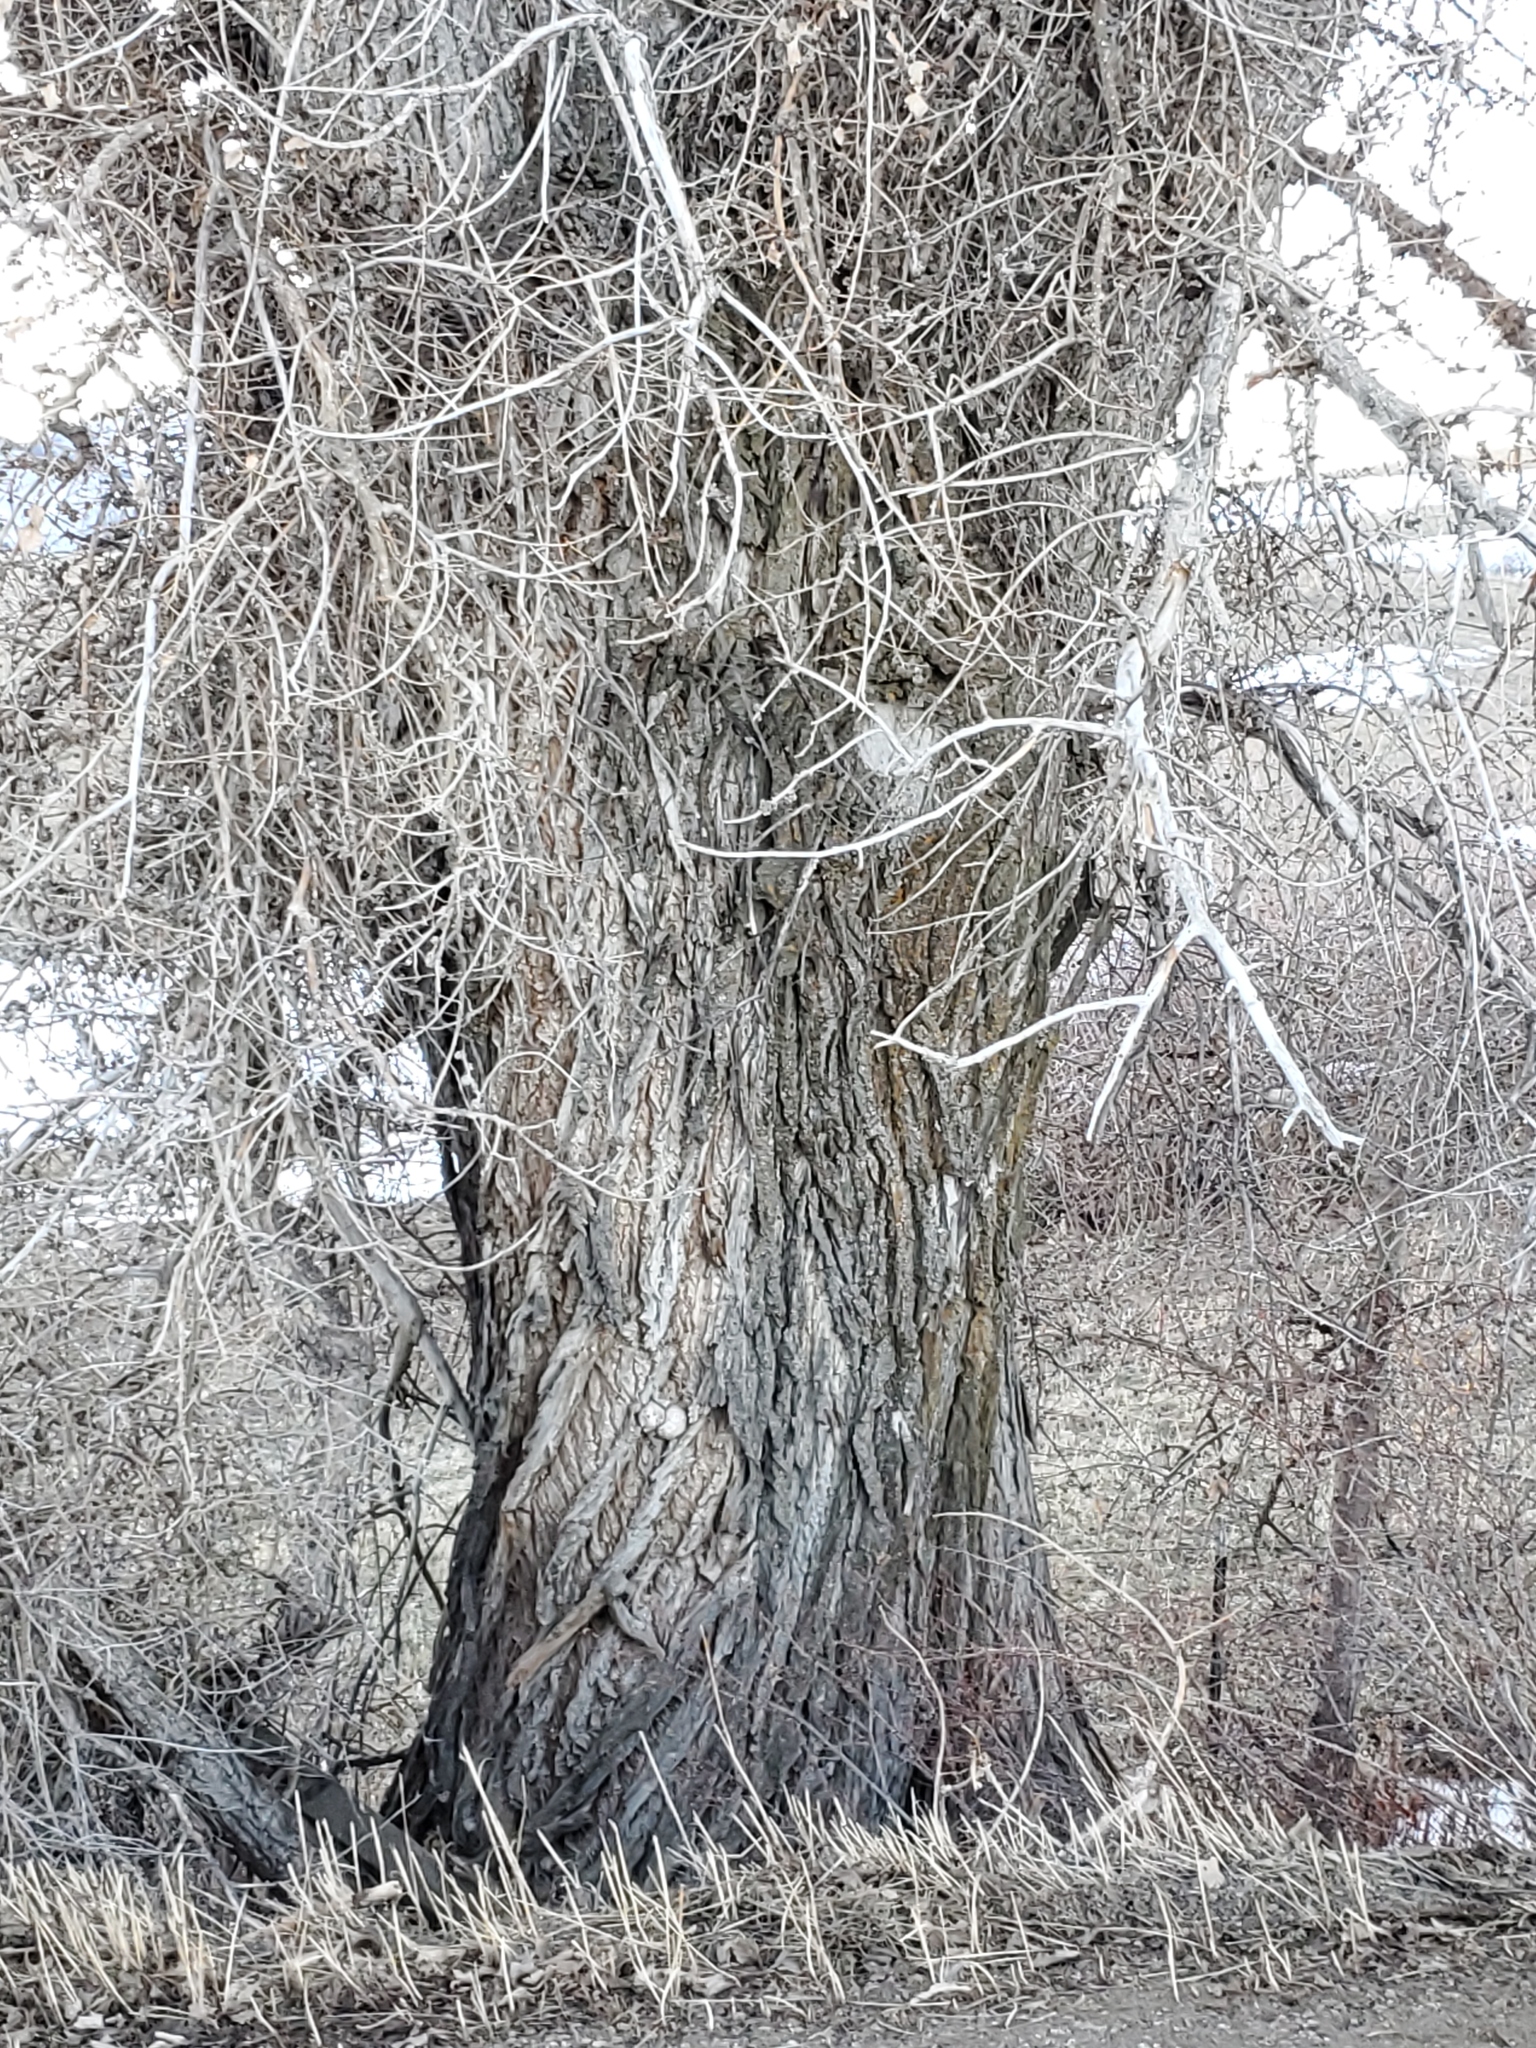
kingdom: Plantae
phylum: Tracheophyta
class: Magnoliopsida
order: Malpighiales
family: Salicaceae
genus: Populus
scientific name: Populus deltoides
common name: Eastern cottonwood
